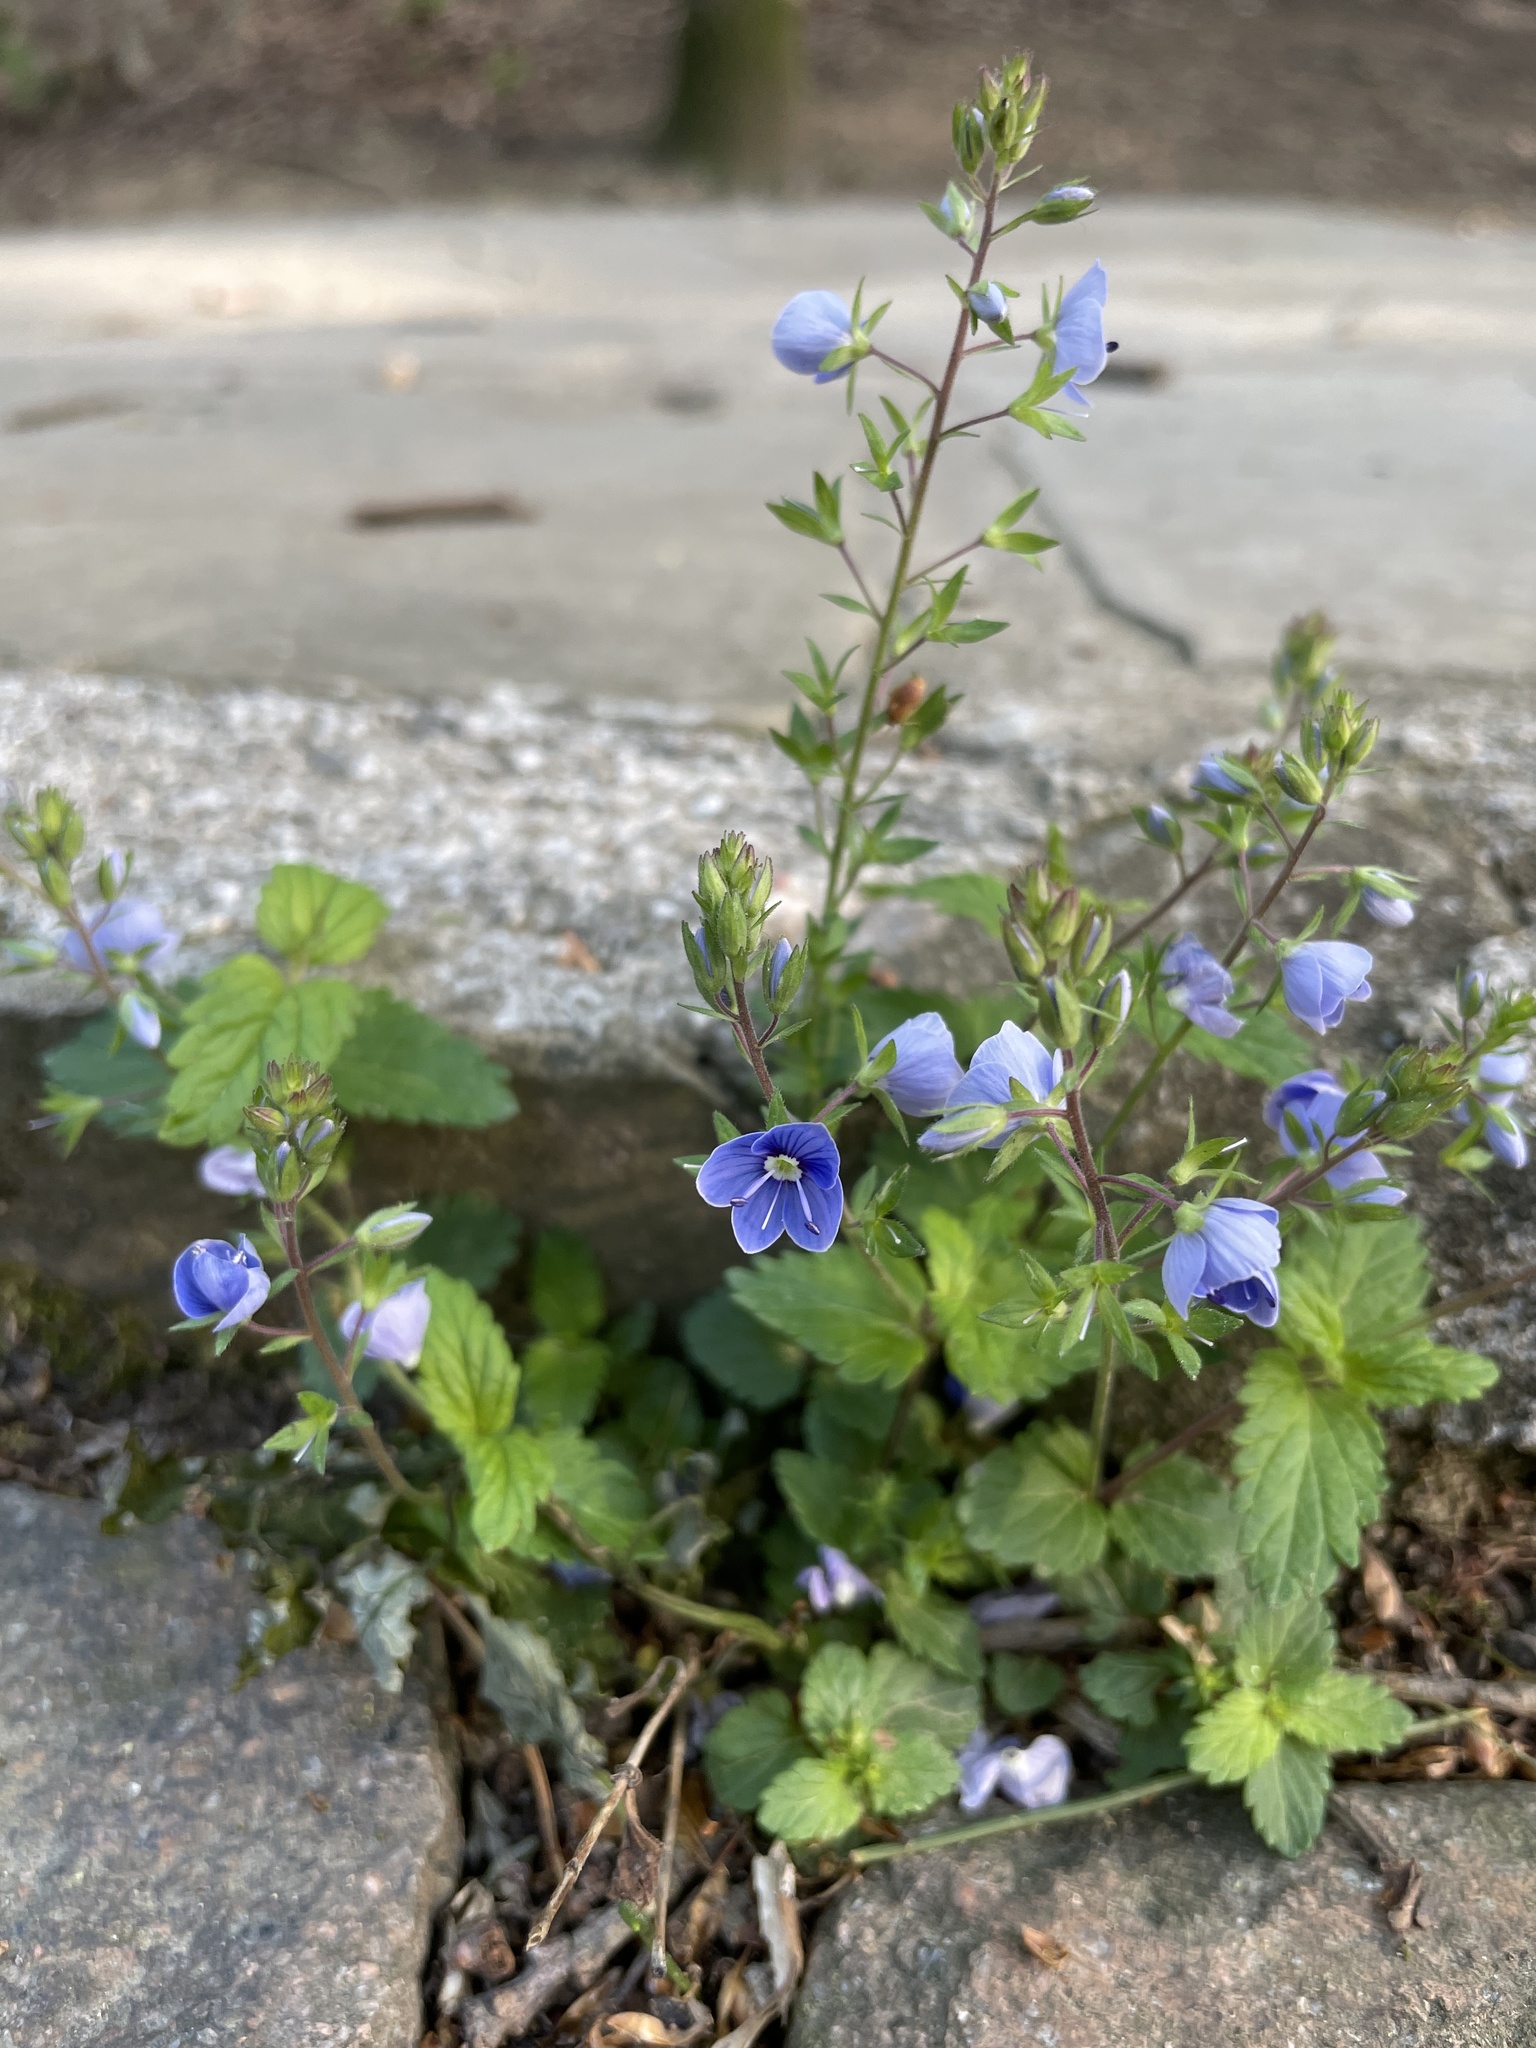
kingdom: Plantae
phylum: Tracheophyta
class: Magnoliopsida
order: Lamiales
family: Plantaginaceae
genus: Veronica
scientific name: Veronica chamaedrys
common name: Germander speedwell
